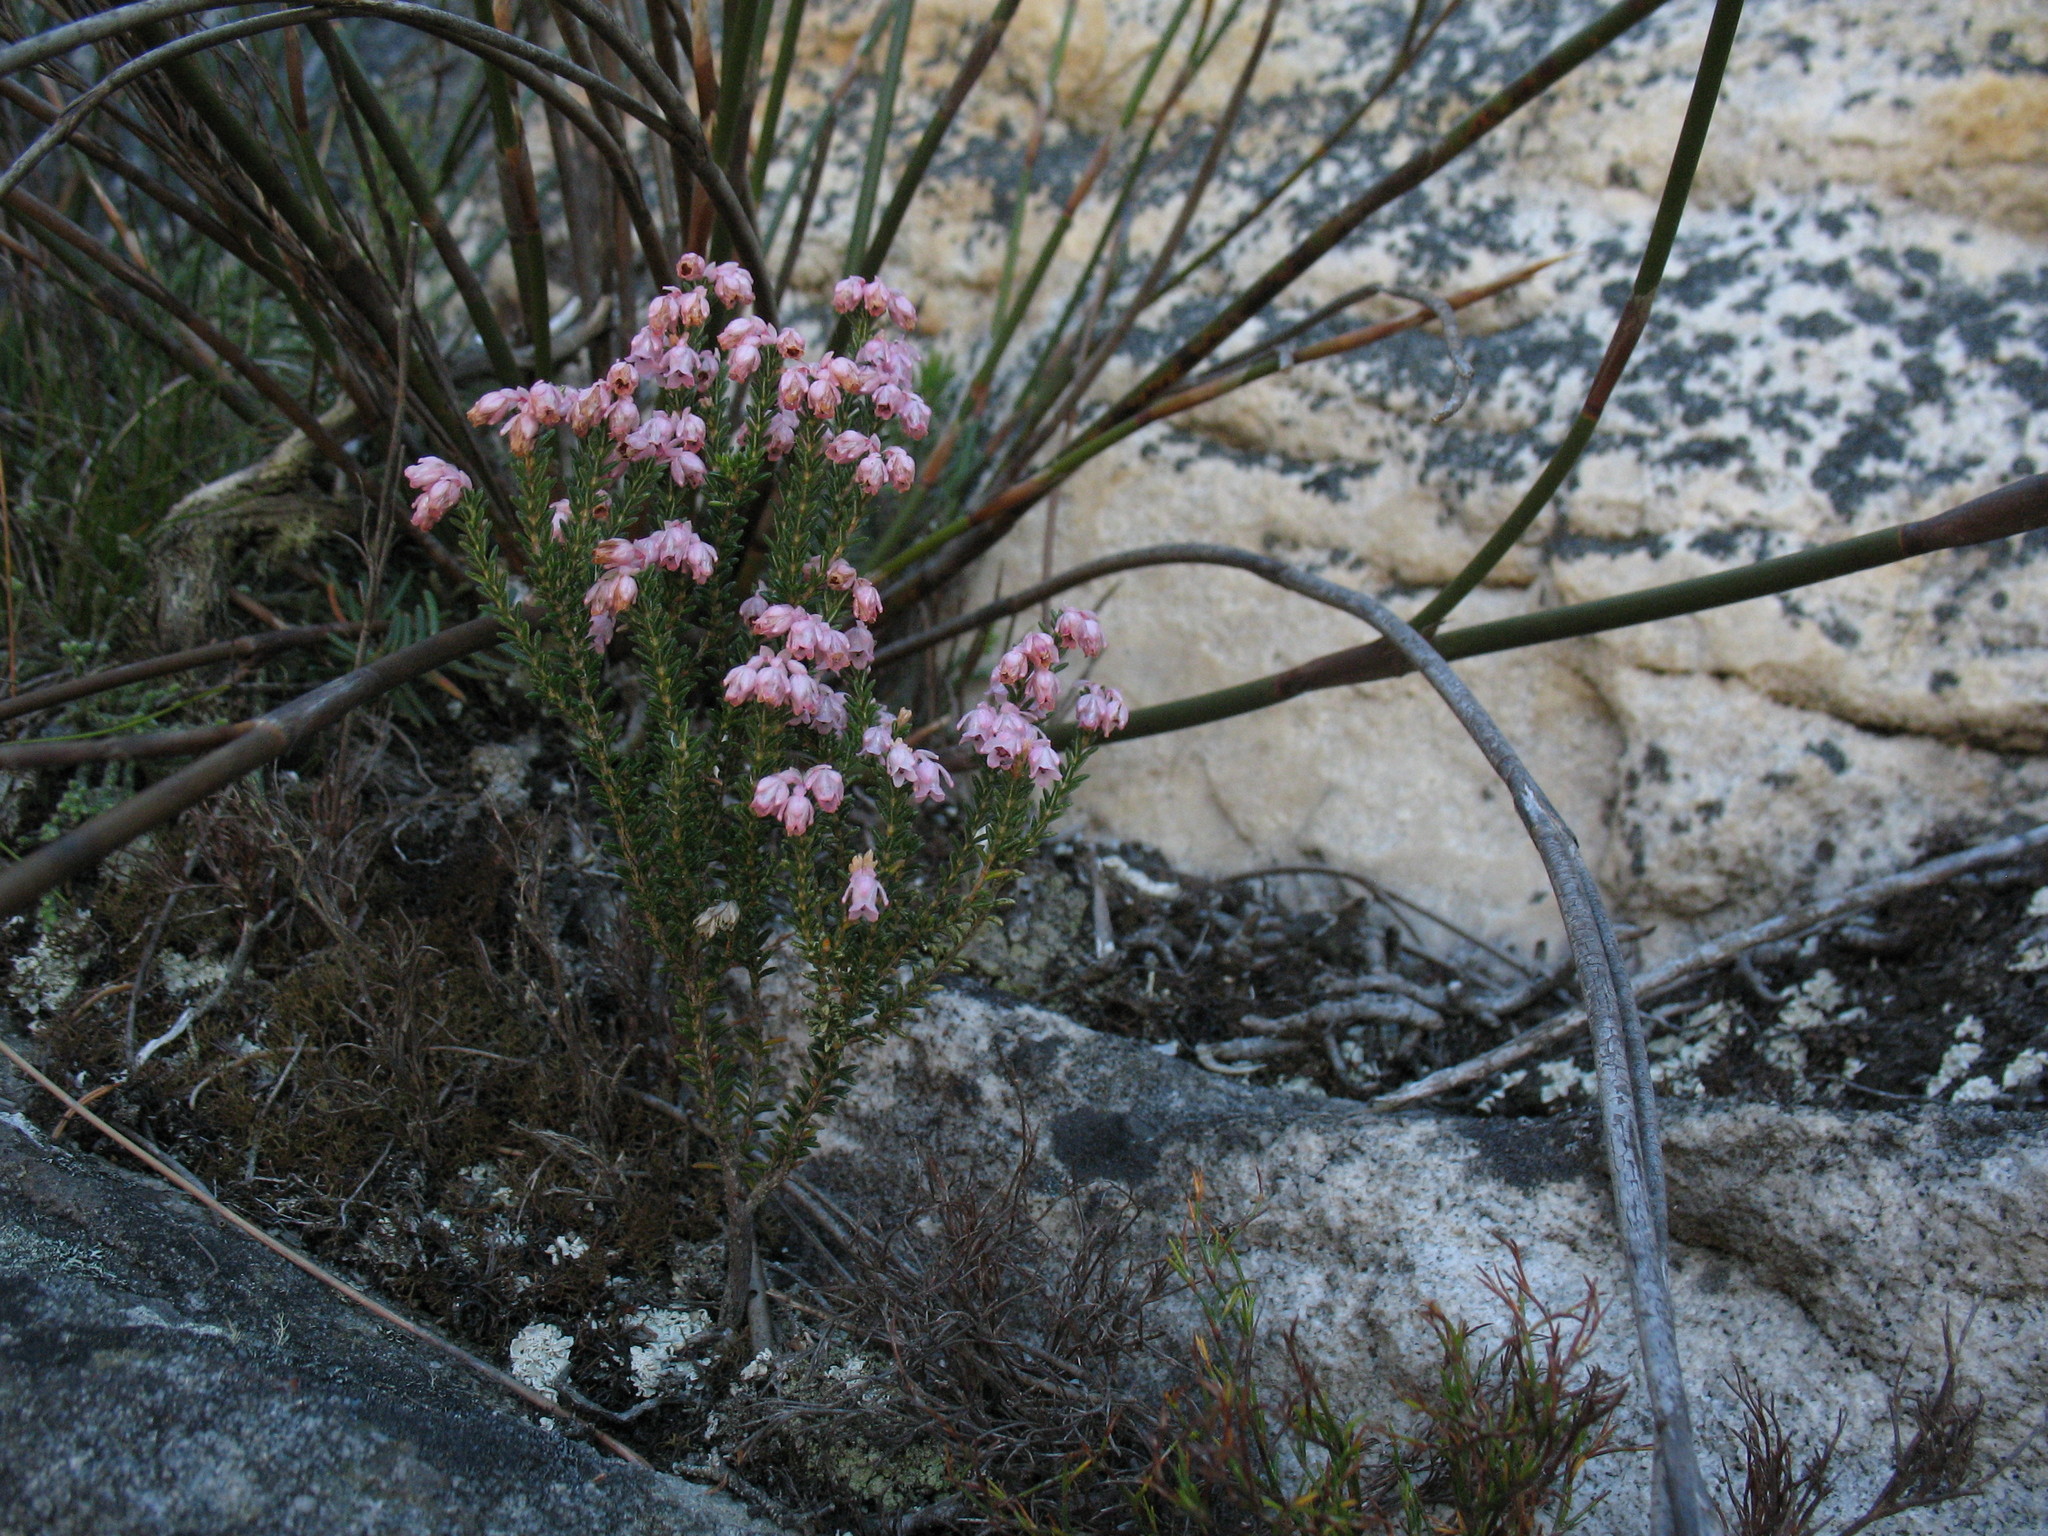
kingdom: Plantae
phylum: Tracheophyta
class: Magnoliopsida
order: Ericales
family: Ericaceae
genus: Erica
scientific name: Erica brevifolia
